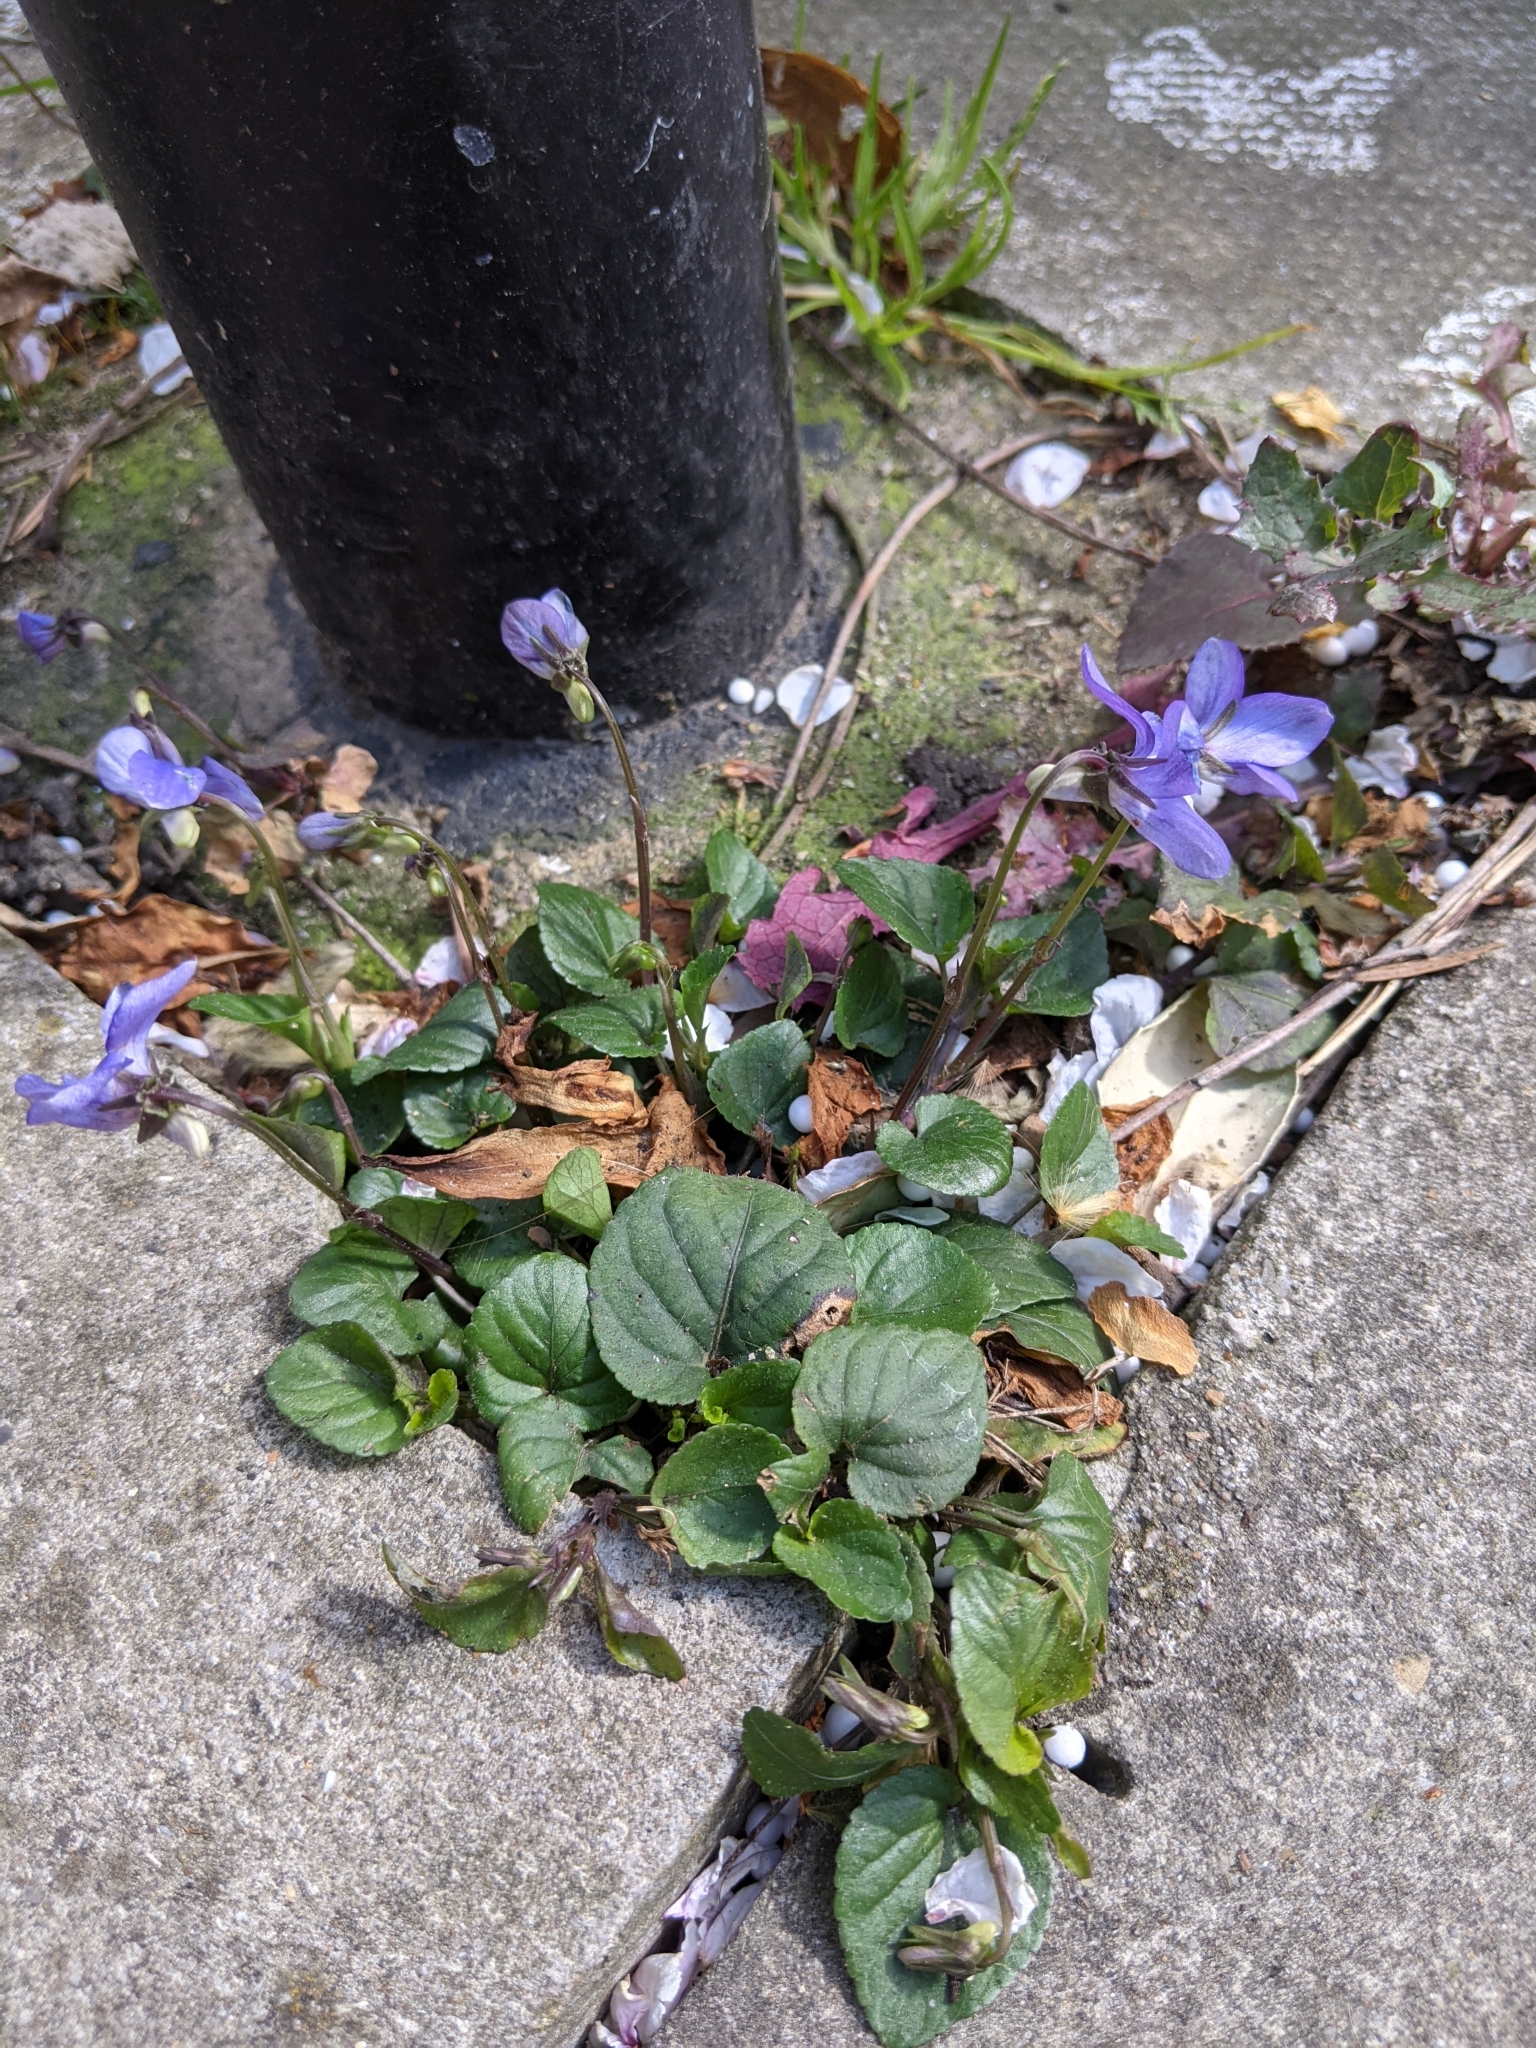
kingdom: Plantae
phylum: Tracheophyta
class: Magnoliopsida
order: Malpighiales
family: Violaceae
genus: Viola
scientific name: Viola riviniana
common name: Common dog-violet
